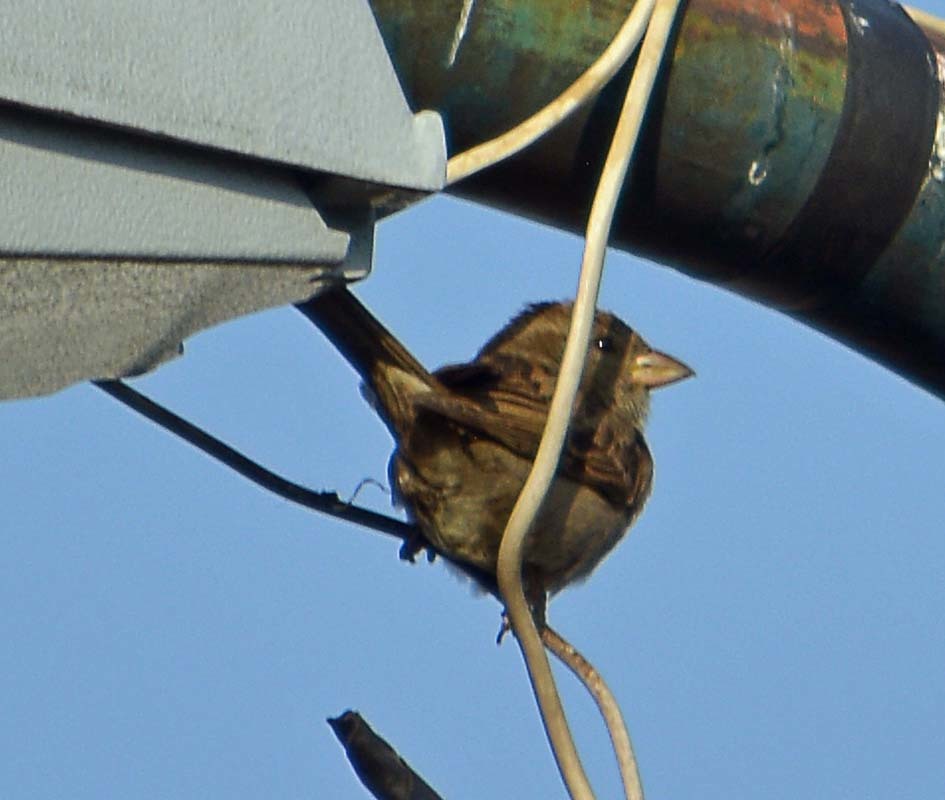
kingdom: Animalia
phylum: Chordata
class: Aves
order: Passeriformes
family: Passeridae
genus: Passer
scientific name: Passer domesticus
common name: House sparrow
